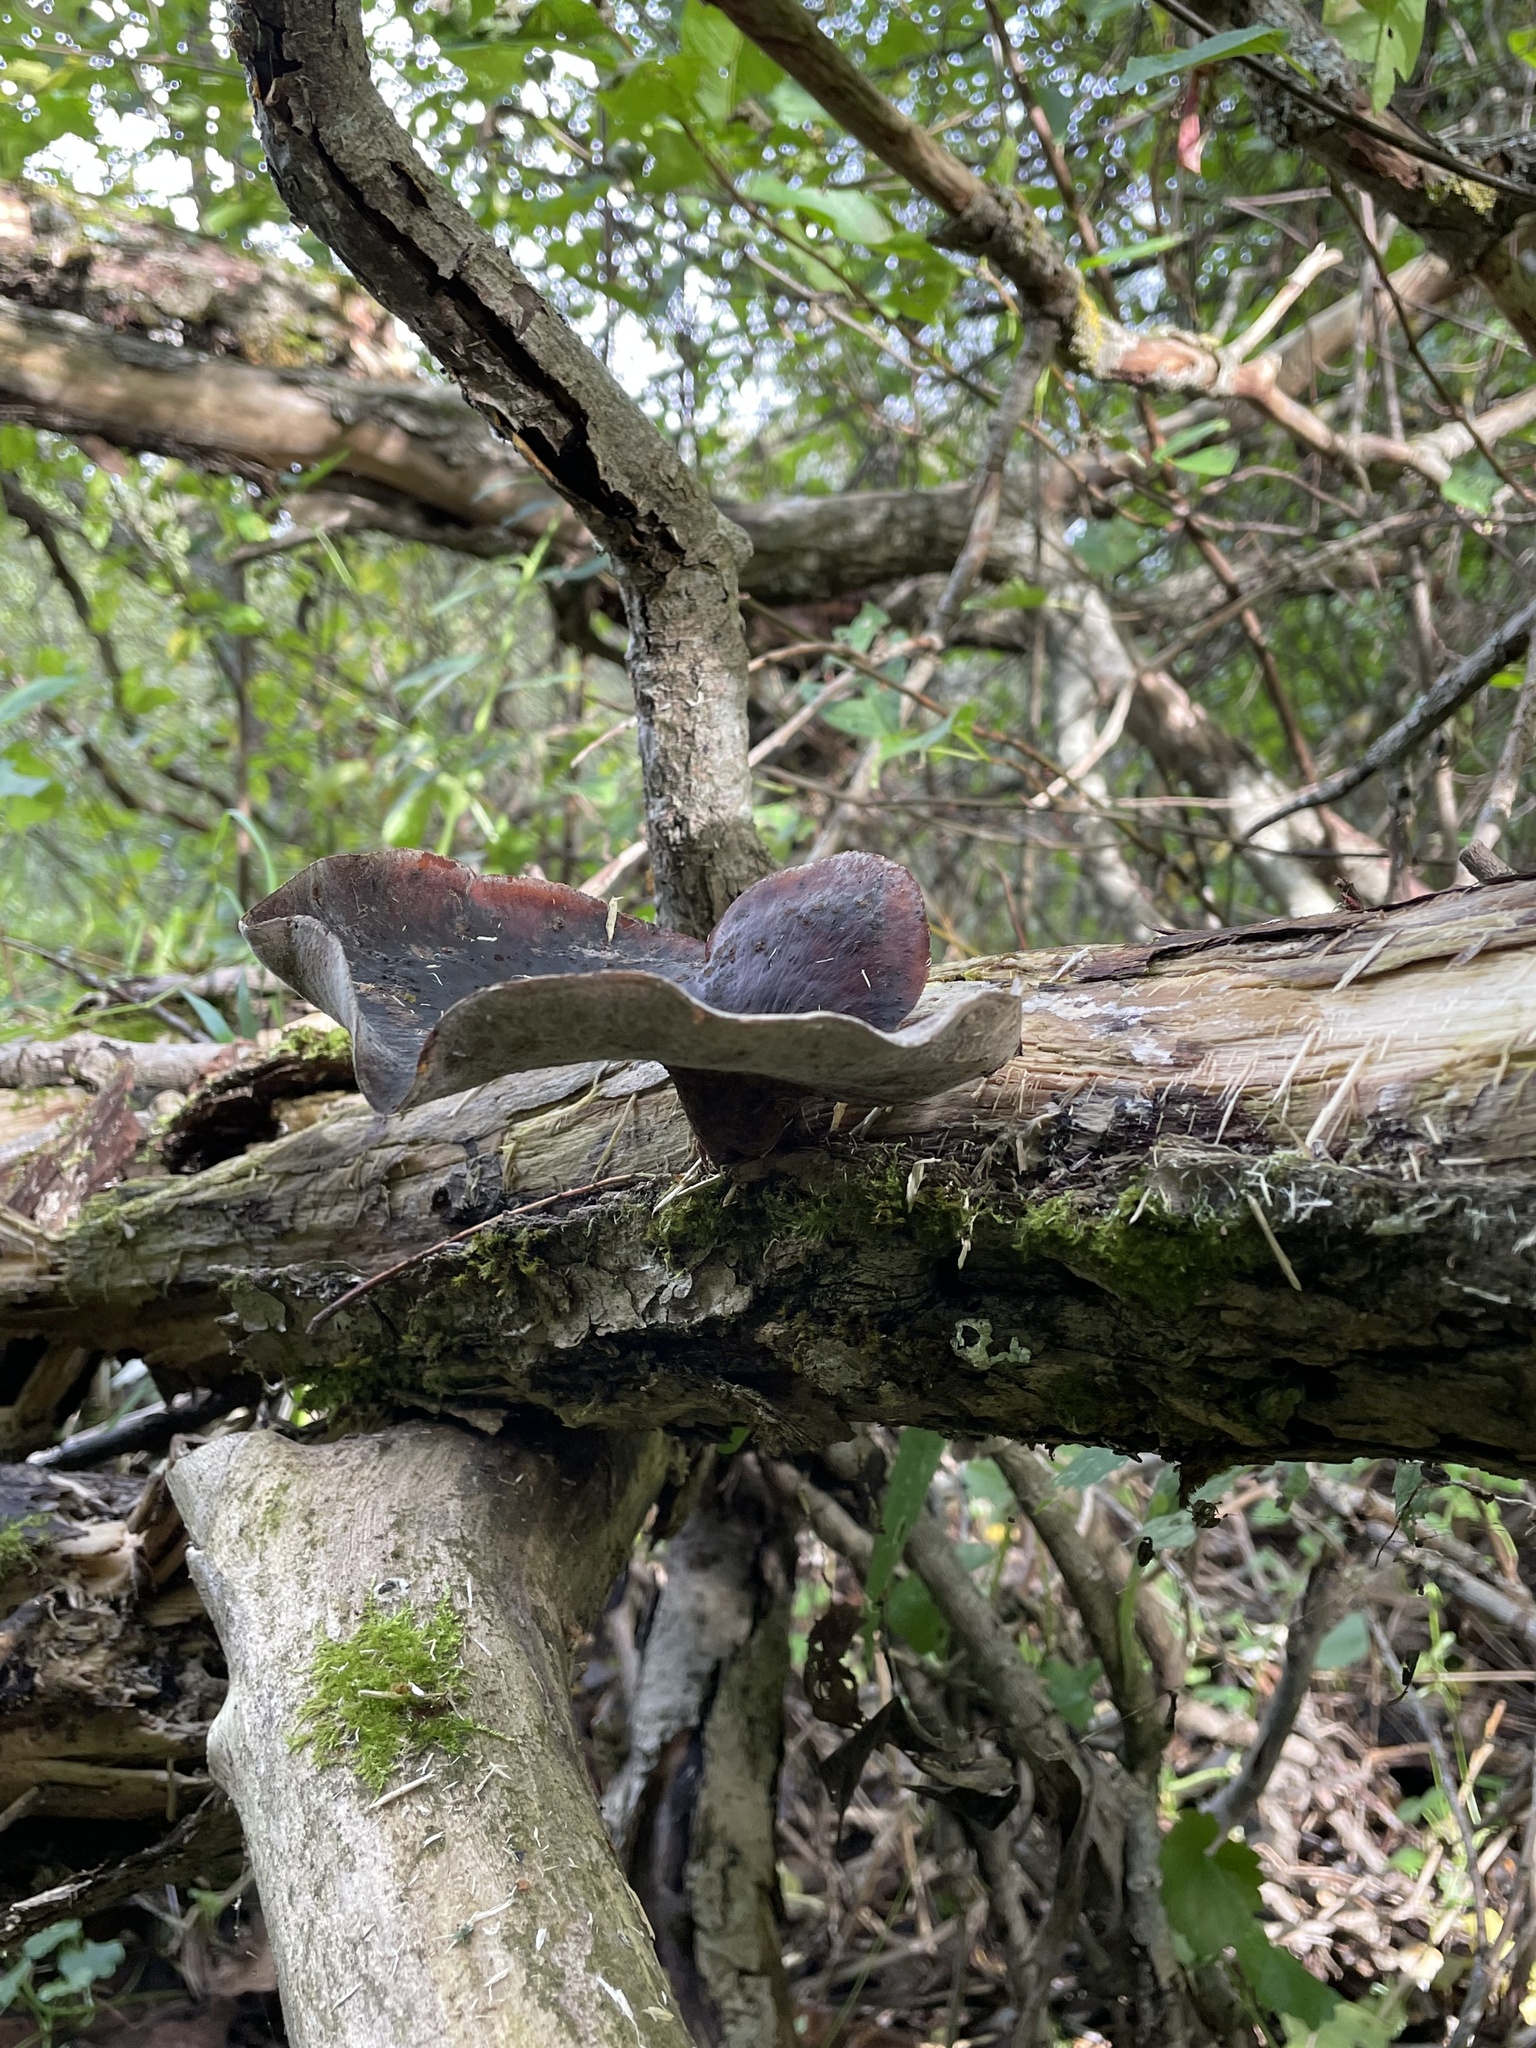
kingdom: Fungi
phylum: Basidiomycota
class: Agaricomycetes
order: Polyporales
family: Polyporaceae
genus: Picipes
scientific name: Picipes badius
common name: Bay polypore
